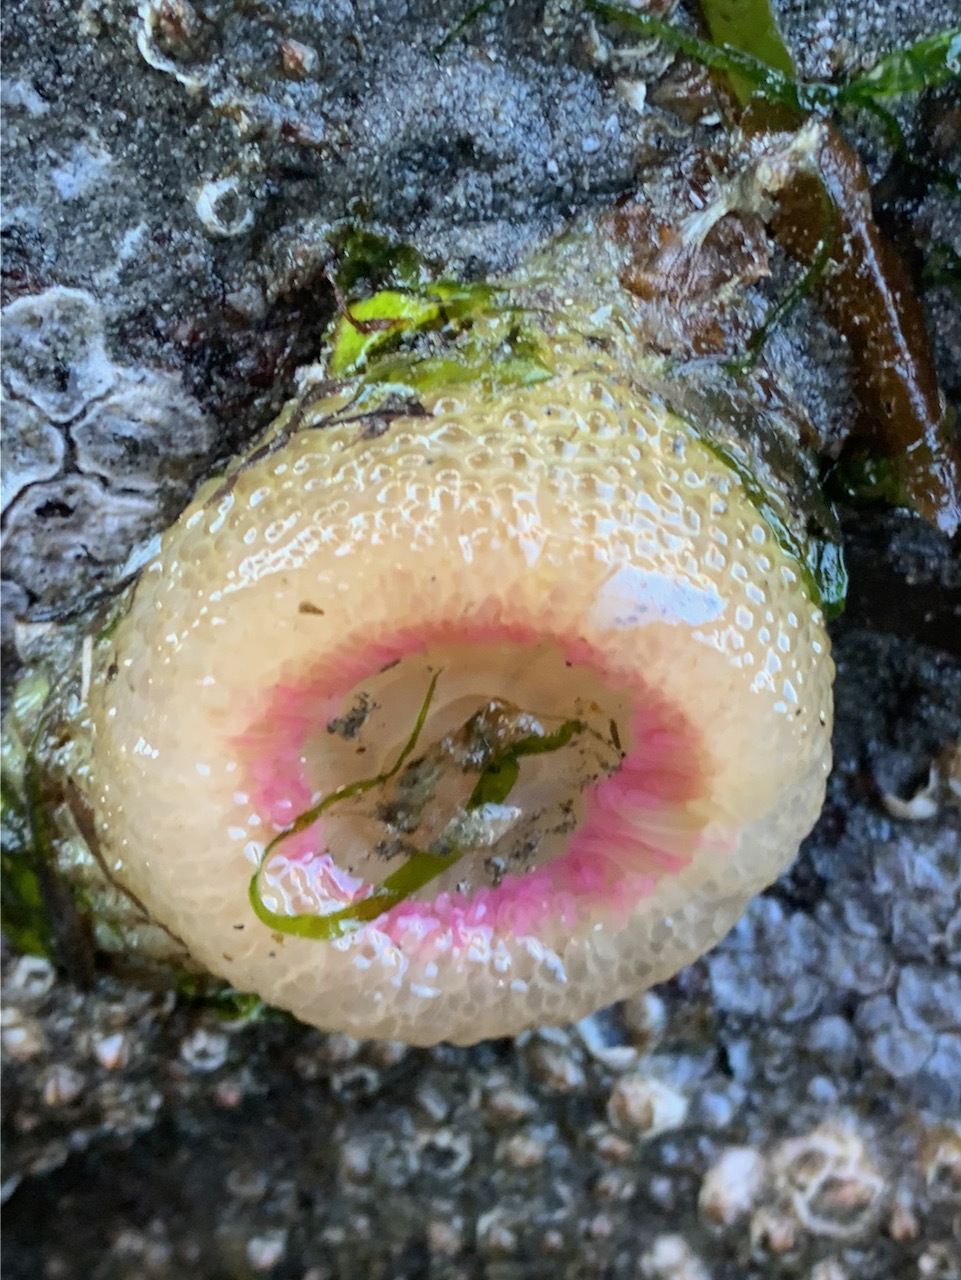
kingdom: Animalia
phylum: Cnidaria
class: Anthozoa
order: Actiniaria
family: Actiniidae
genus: Anthopleura
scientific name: Anthopleura elegantissima
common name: Clonal anemone
